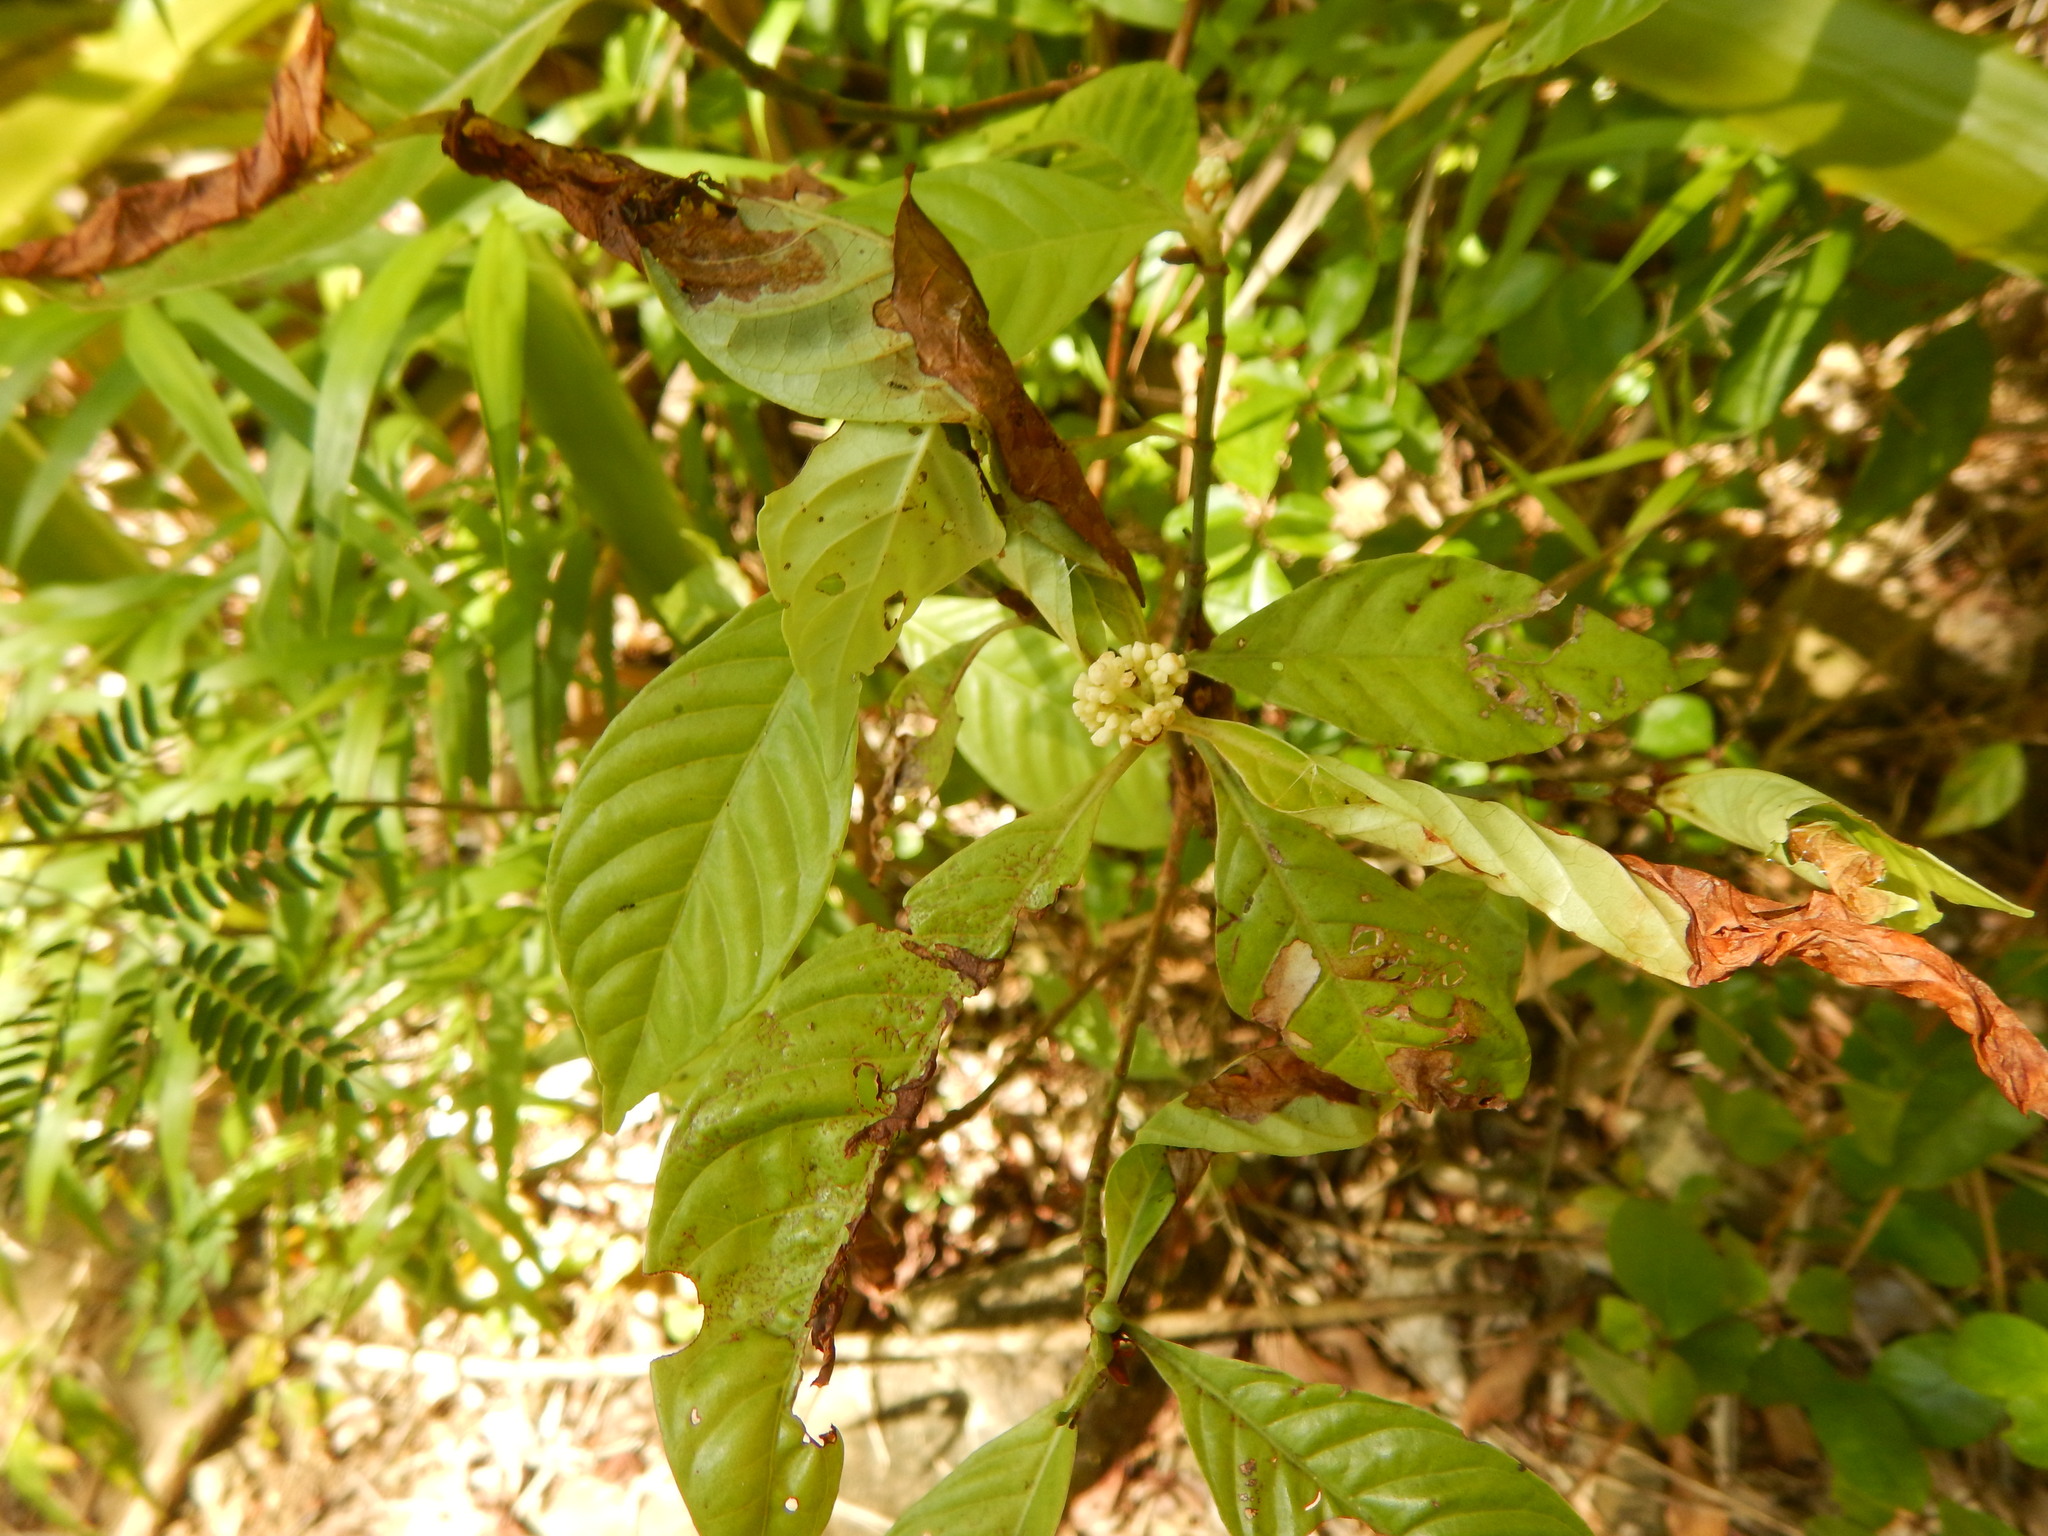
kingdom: Plantae
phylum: Tracheophyta
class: Magnoliopsida
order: Gentianales
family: Rubiaceae
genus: Psychotria
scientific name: Psychotria nervosa
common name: Bastard cankerberry
